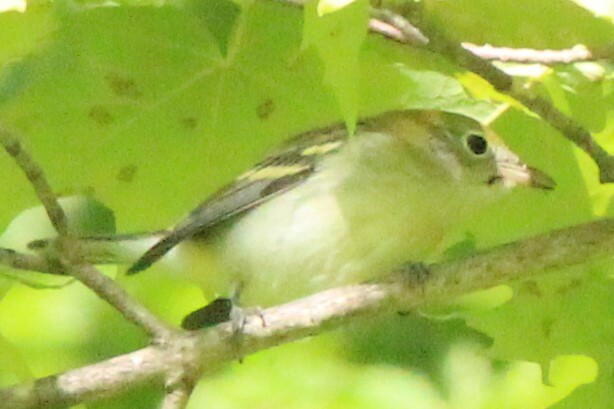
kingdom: Animalia
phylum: Chordata
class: Aves
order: Passeriformes
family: Parulidae
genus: Setophaga
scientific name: Setophaga pensylvanica
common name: Chestnut-sided warbler
